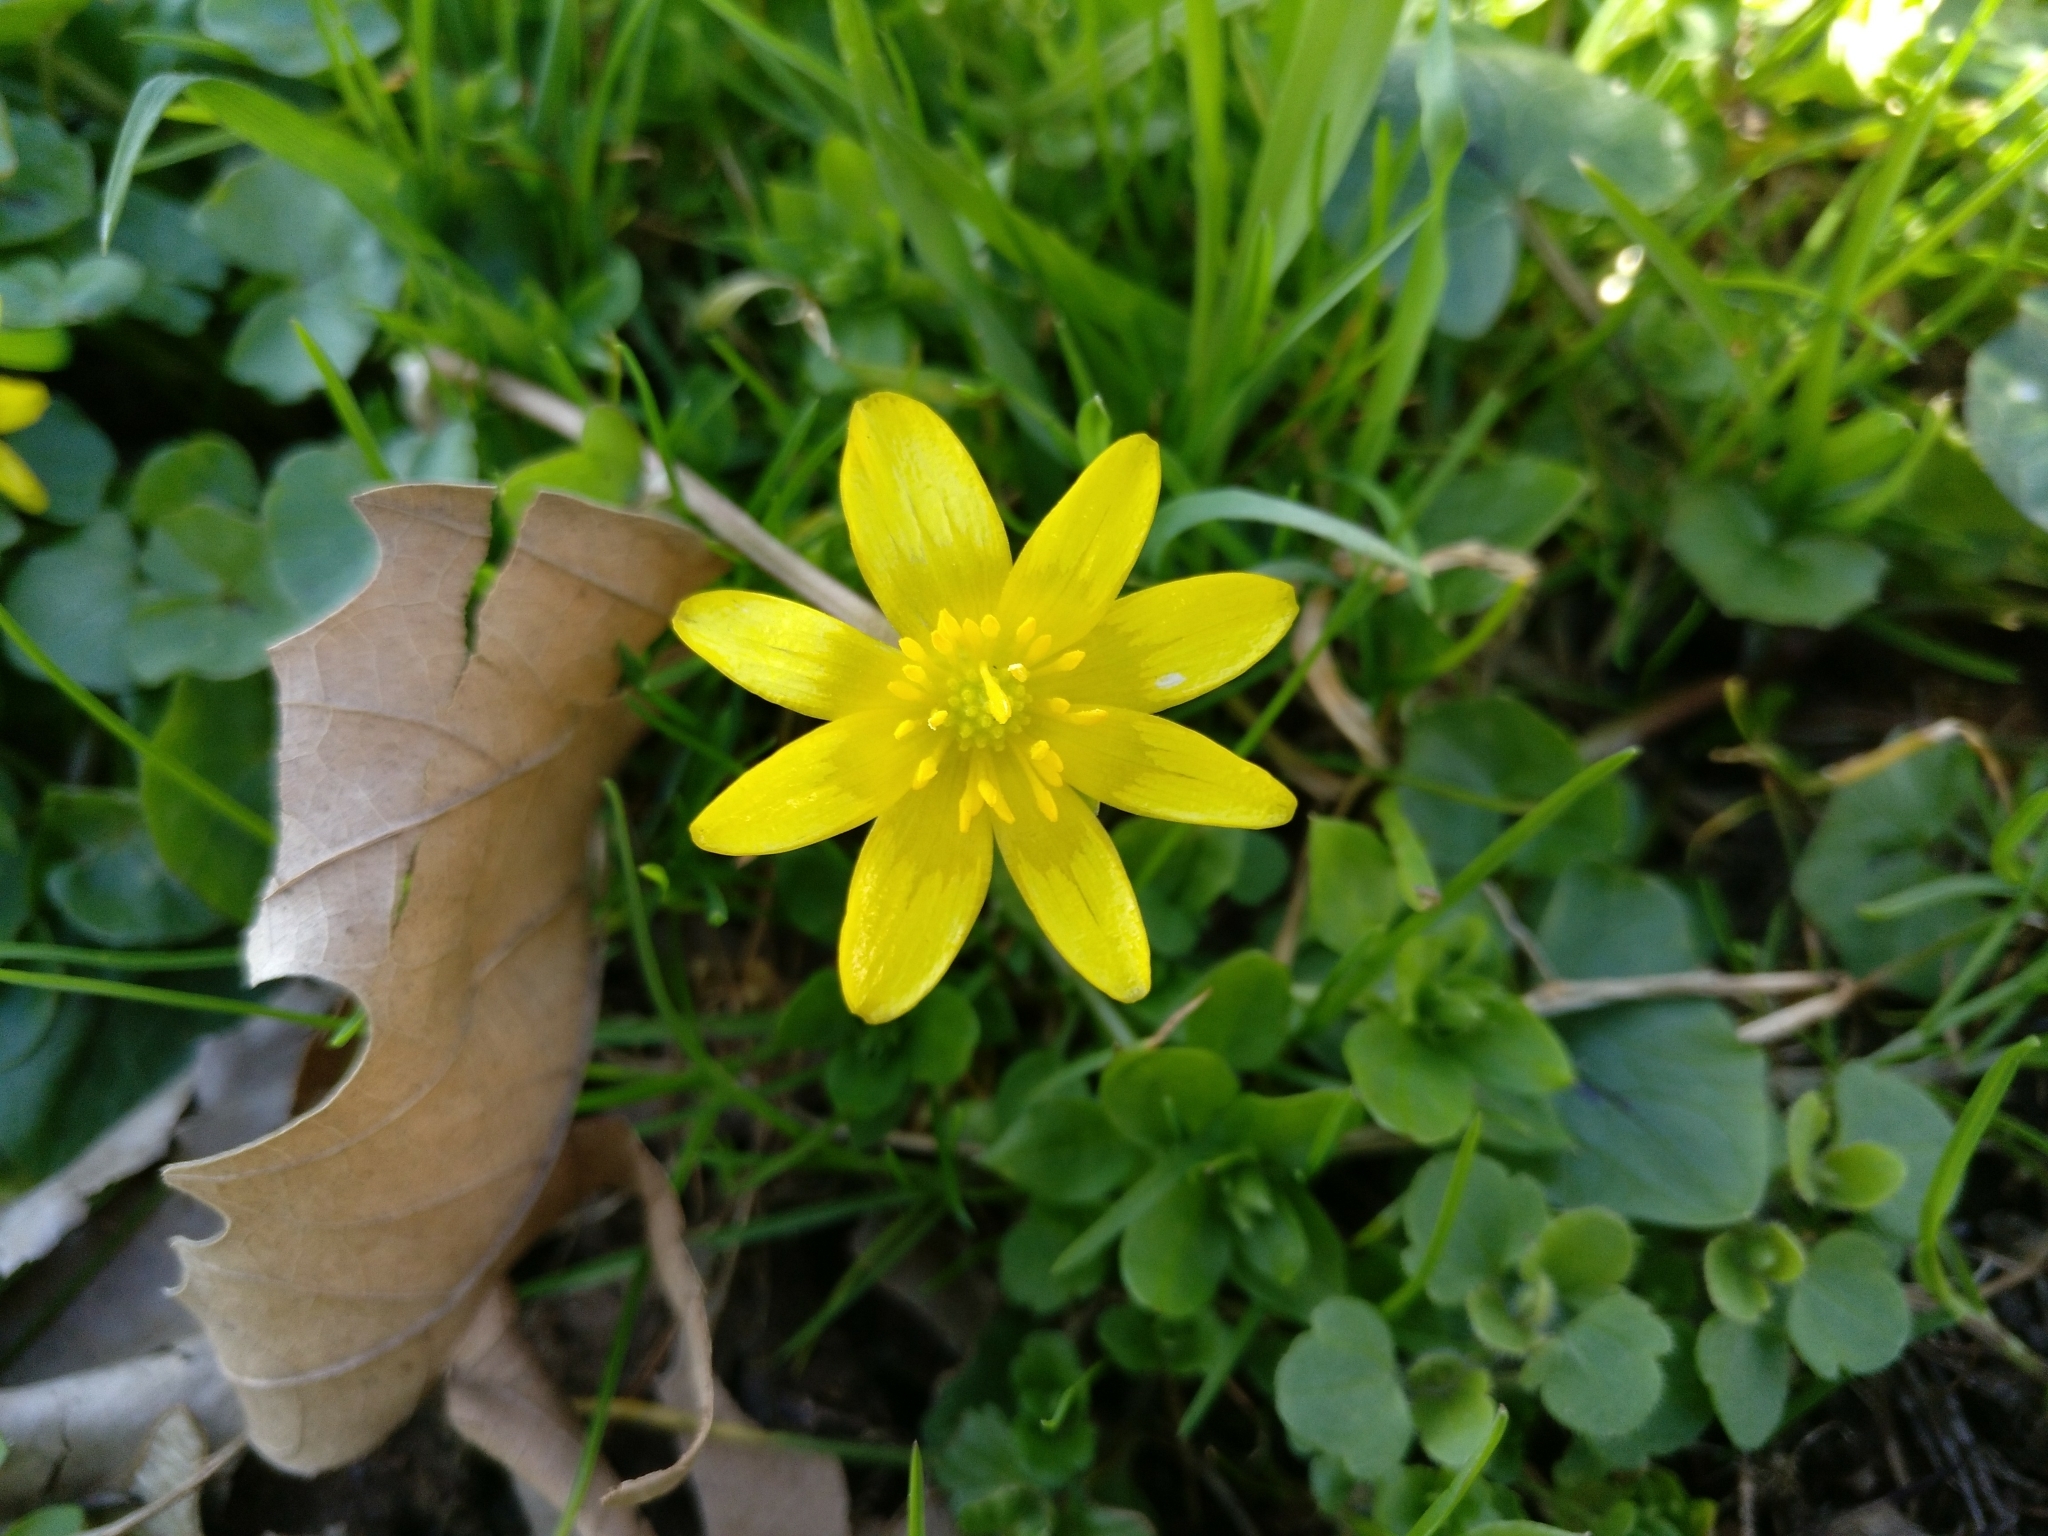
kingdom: Plantae
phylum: Tracheophyta
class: Magnoliopsida
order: Ranunculales
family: Ranunculaceae
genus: Ficaria
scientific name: Ficaria verna
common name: Lesser celandine
